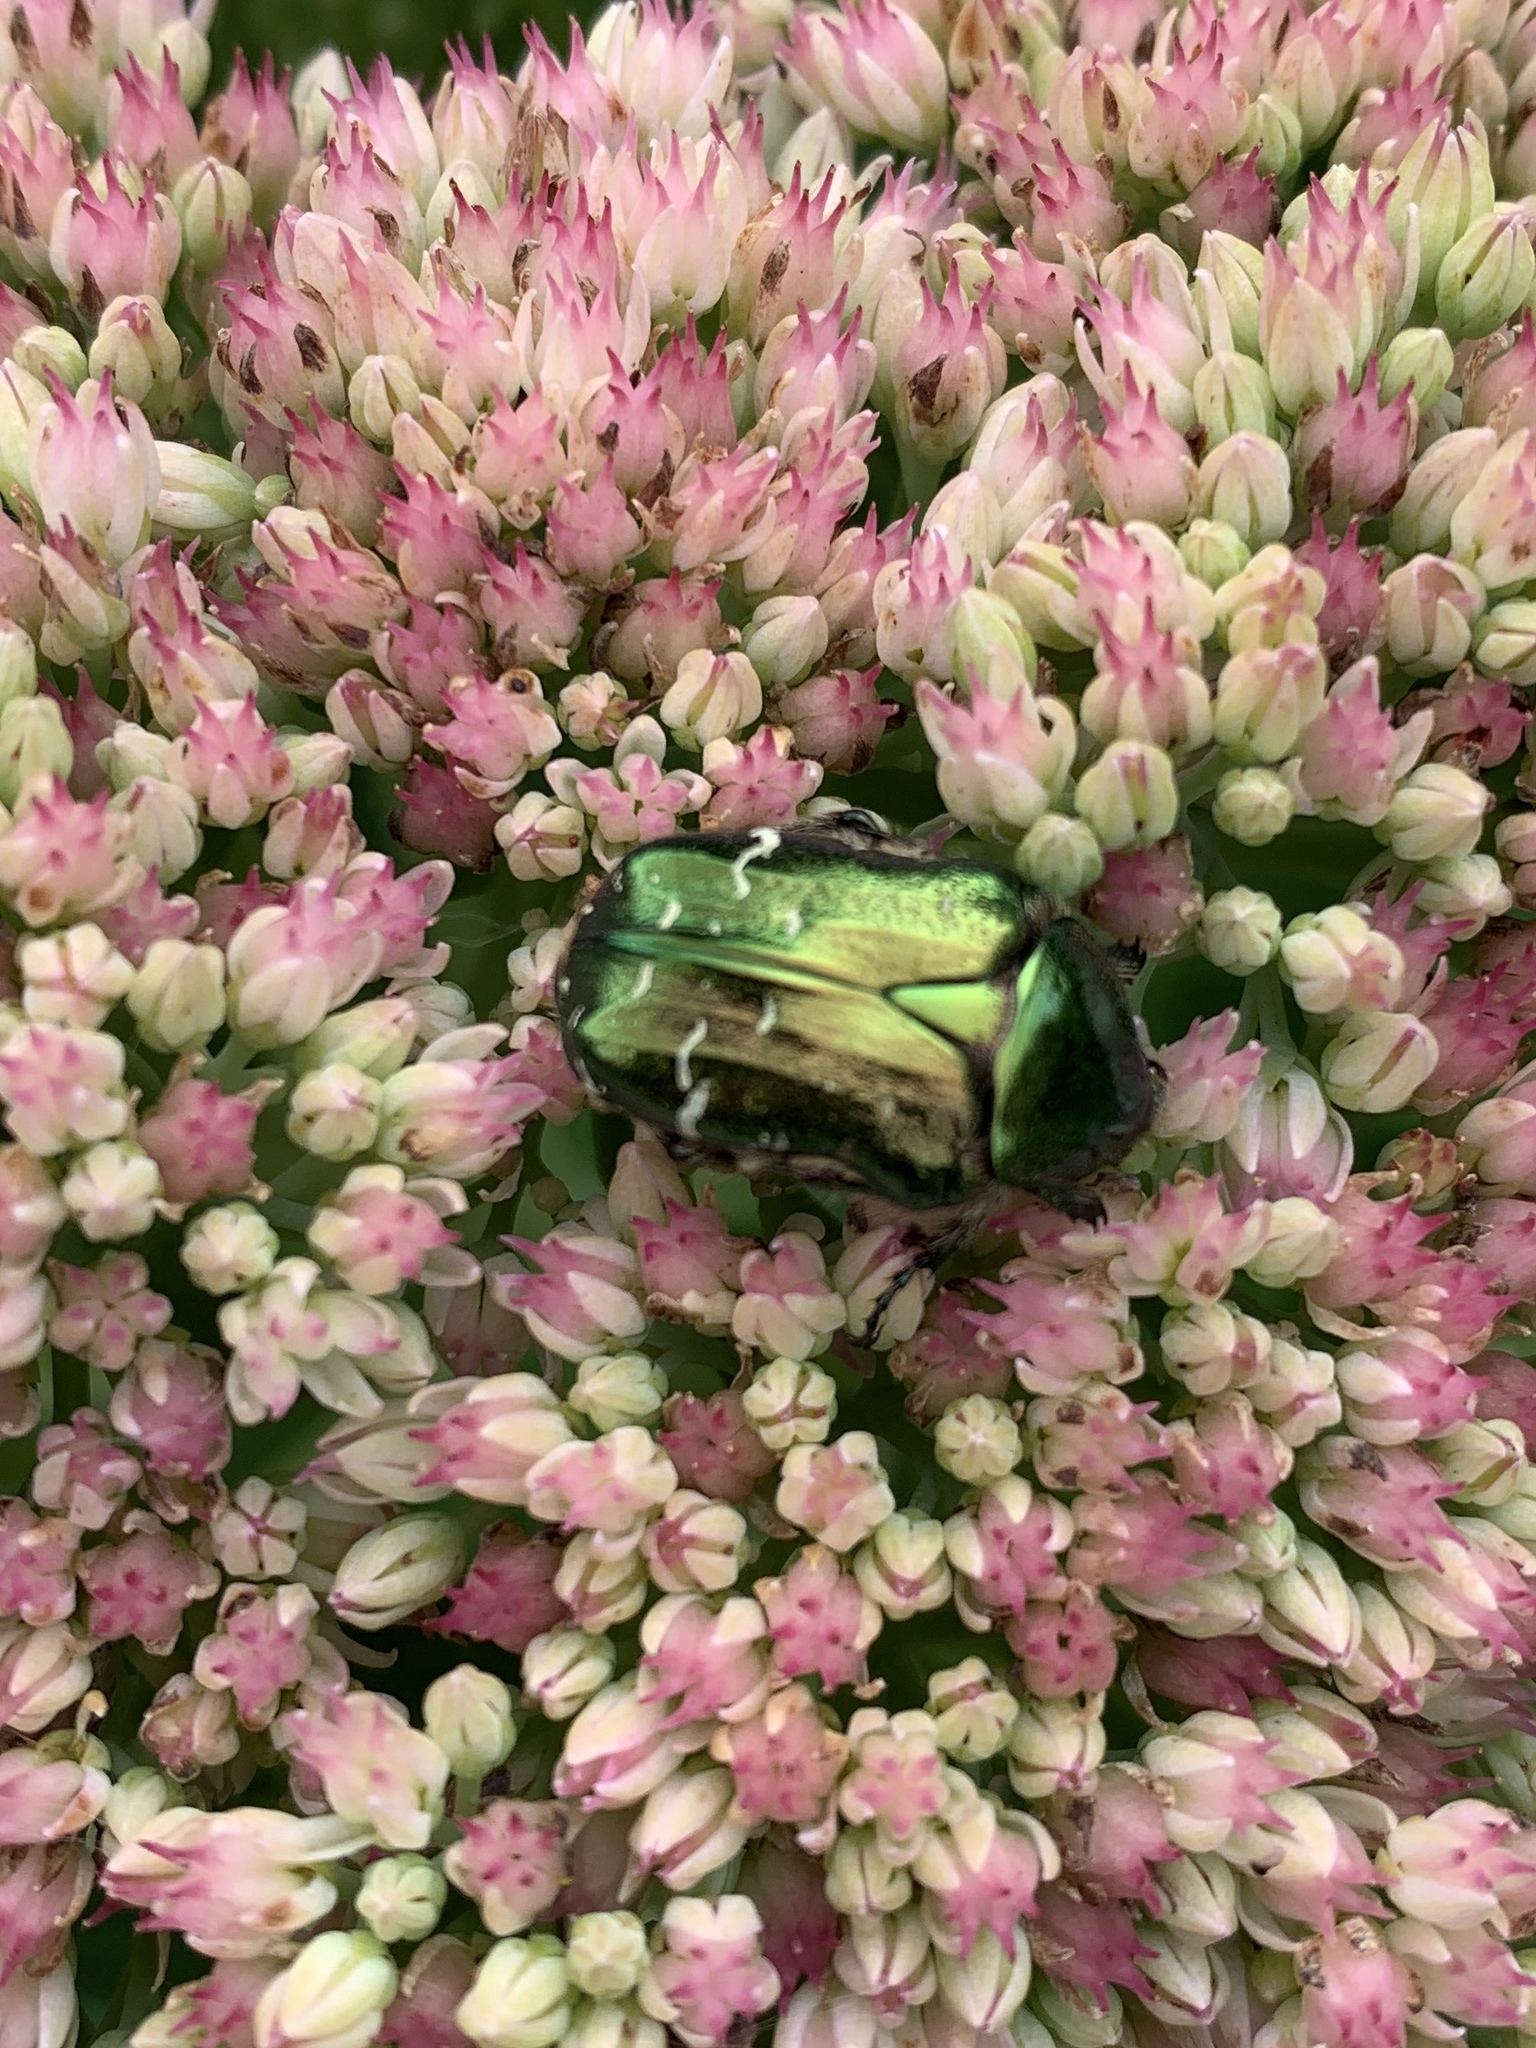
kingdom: Animalia
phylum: Arthropoda
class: Insecta
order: Coleoptera
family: Scarabaeidae
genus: Cetonia
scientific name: Cetonia aurata
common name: Rose chafer
